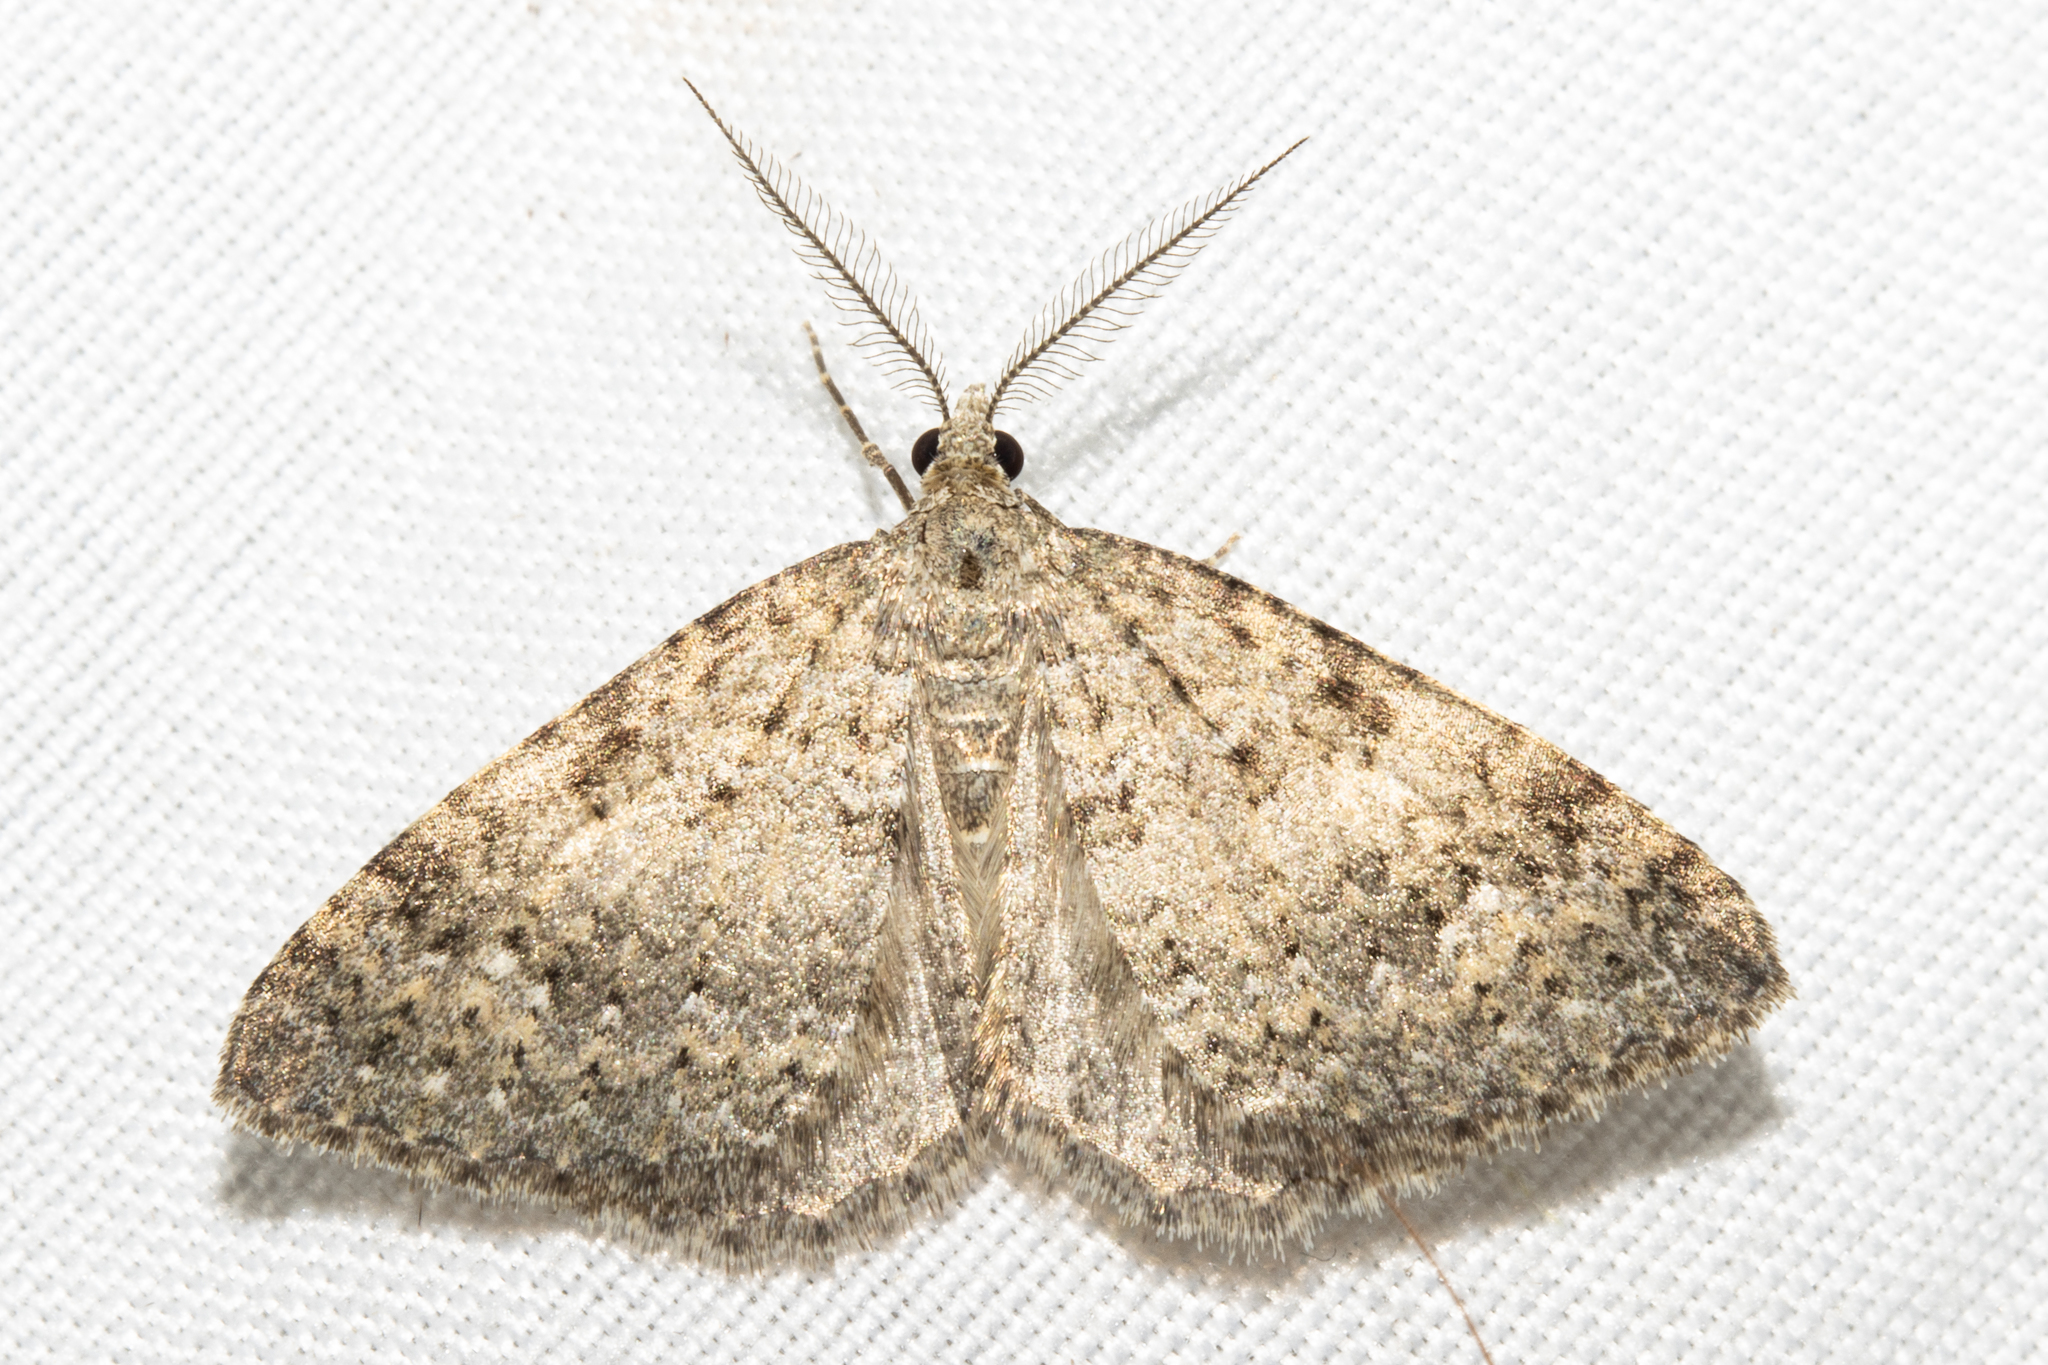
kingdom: Animalia
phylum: Arthropoda
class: Insecta
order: Lepidoptera
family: Geometridae
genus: Helastia
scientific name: Helastia corcularia
